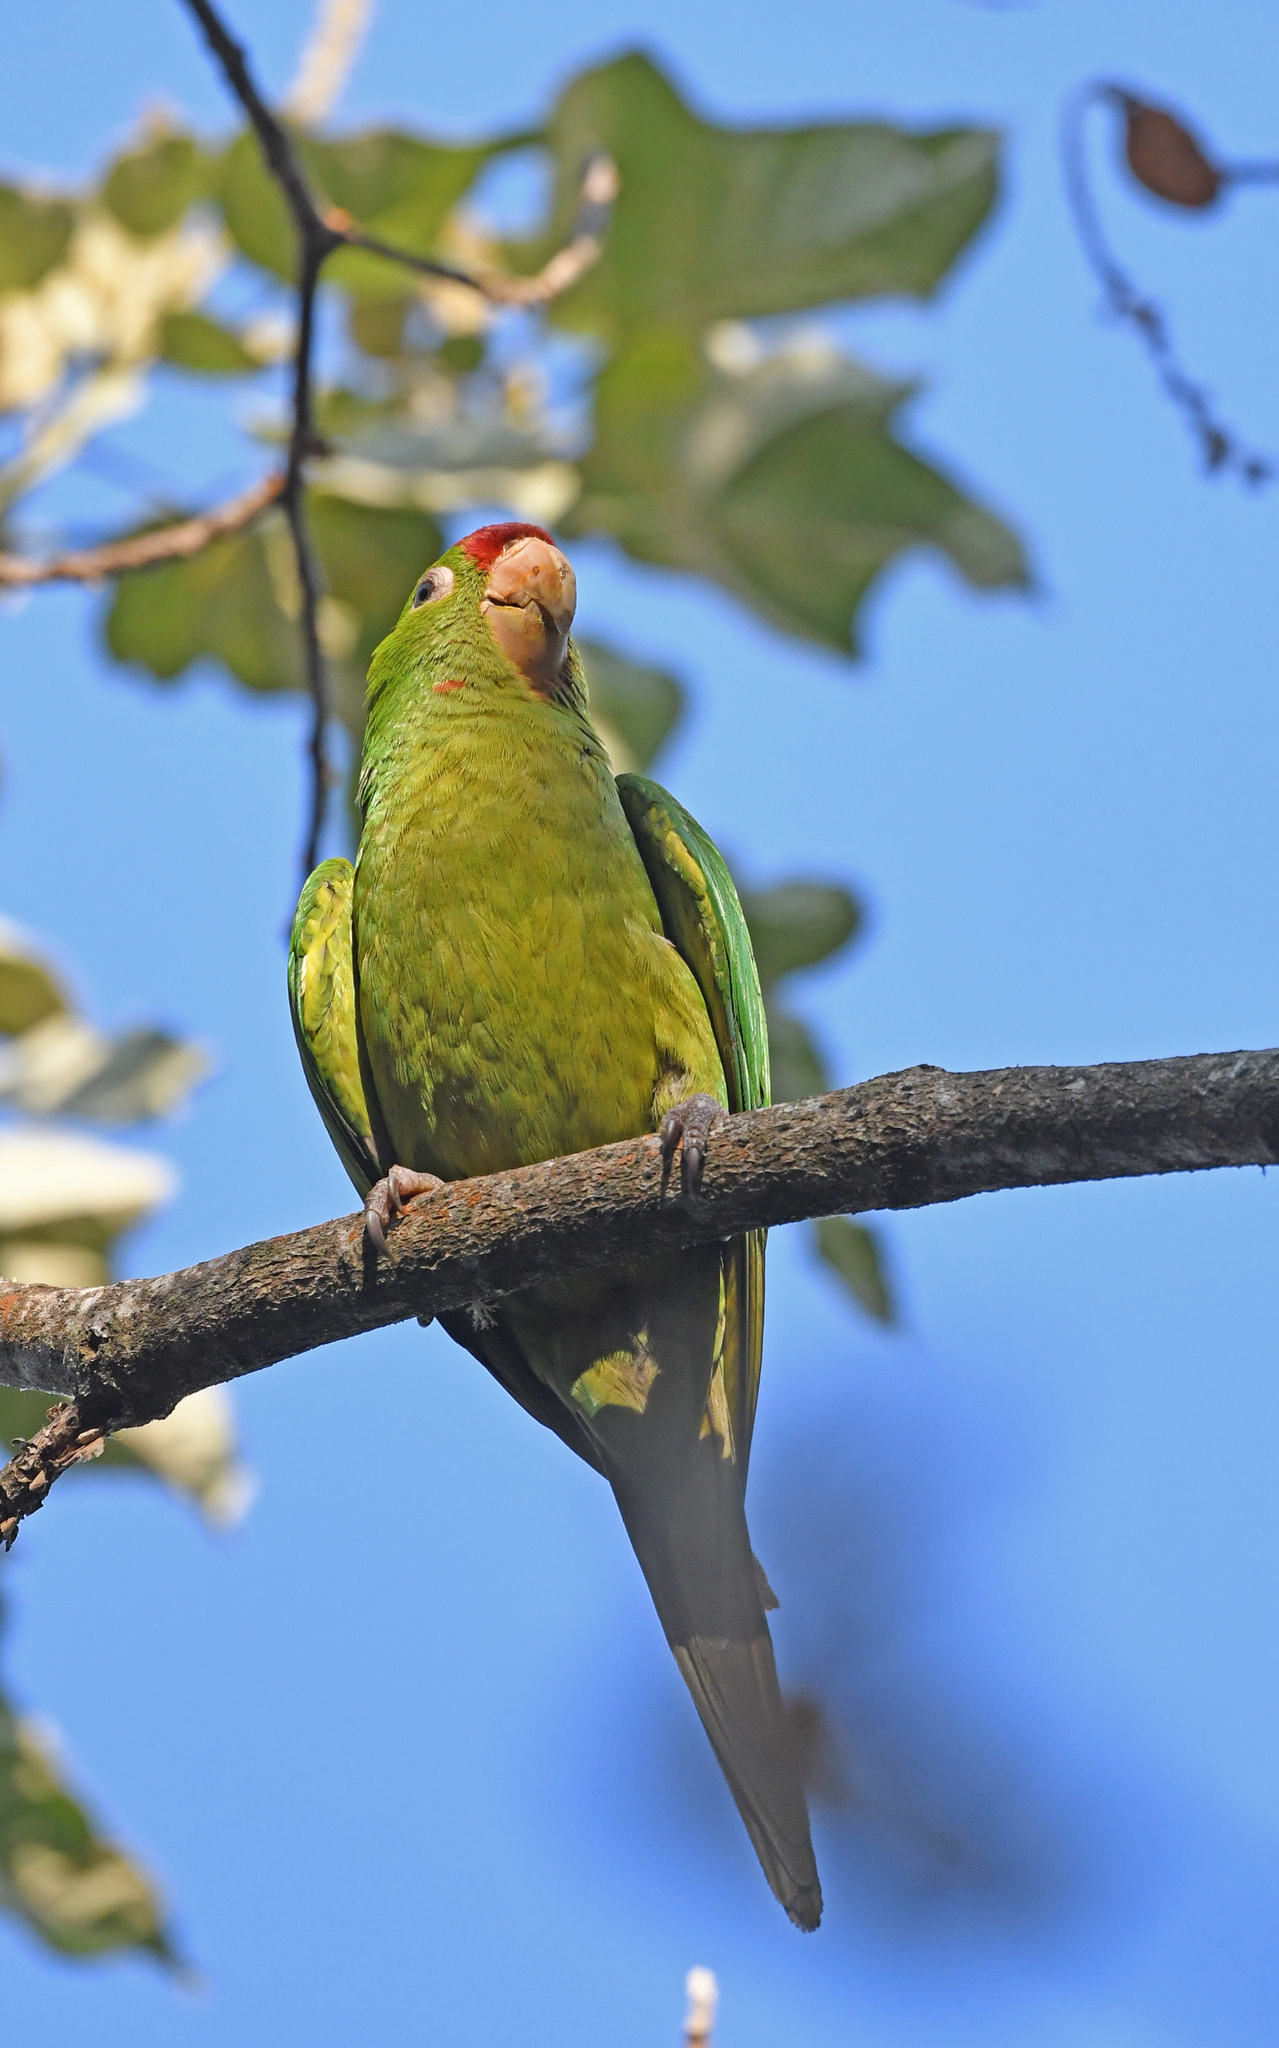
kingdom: Animalia
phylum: Chordata
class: Aves
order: Psittaciformes
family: Psittacidae
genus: Aratinga
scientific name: Aratinga wagleri
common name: Scarlet-fronted parakeet
